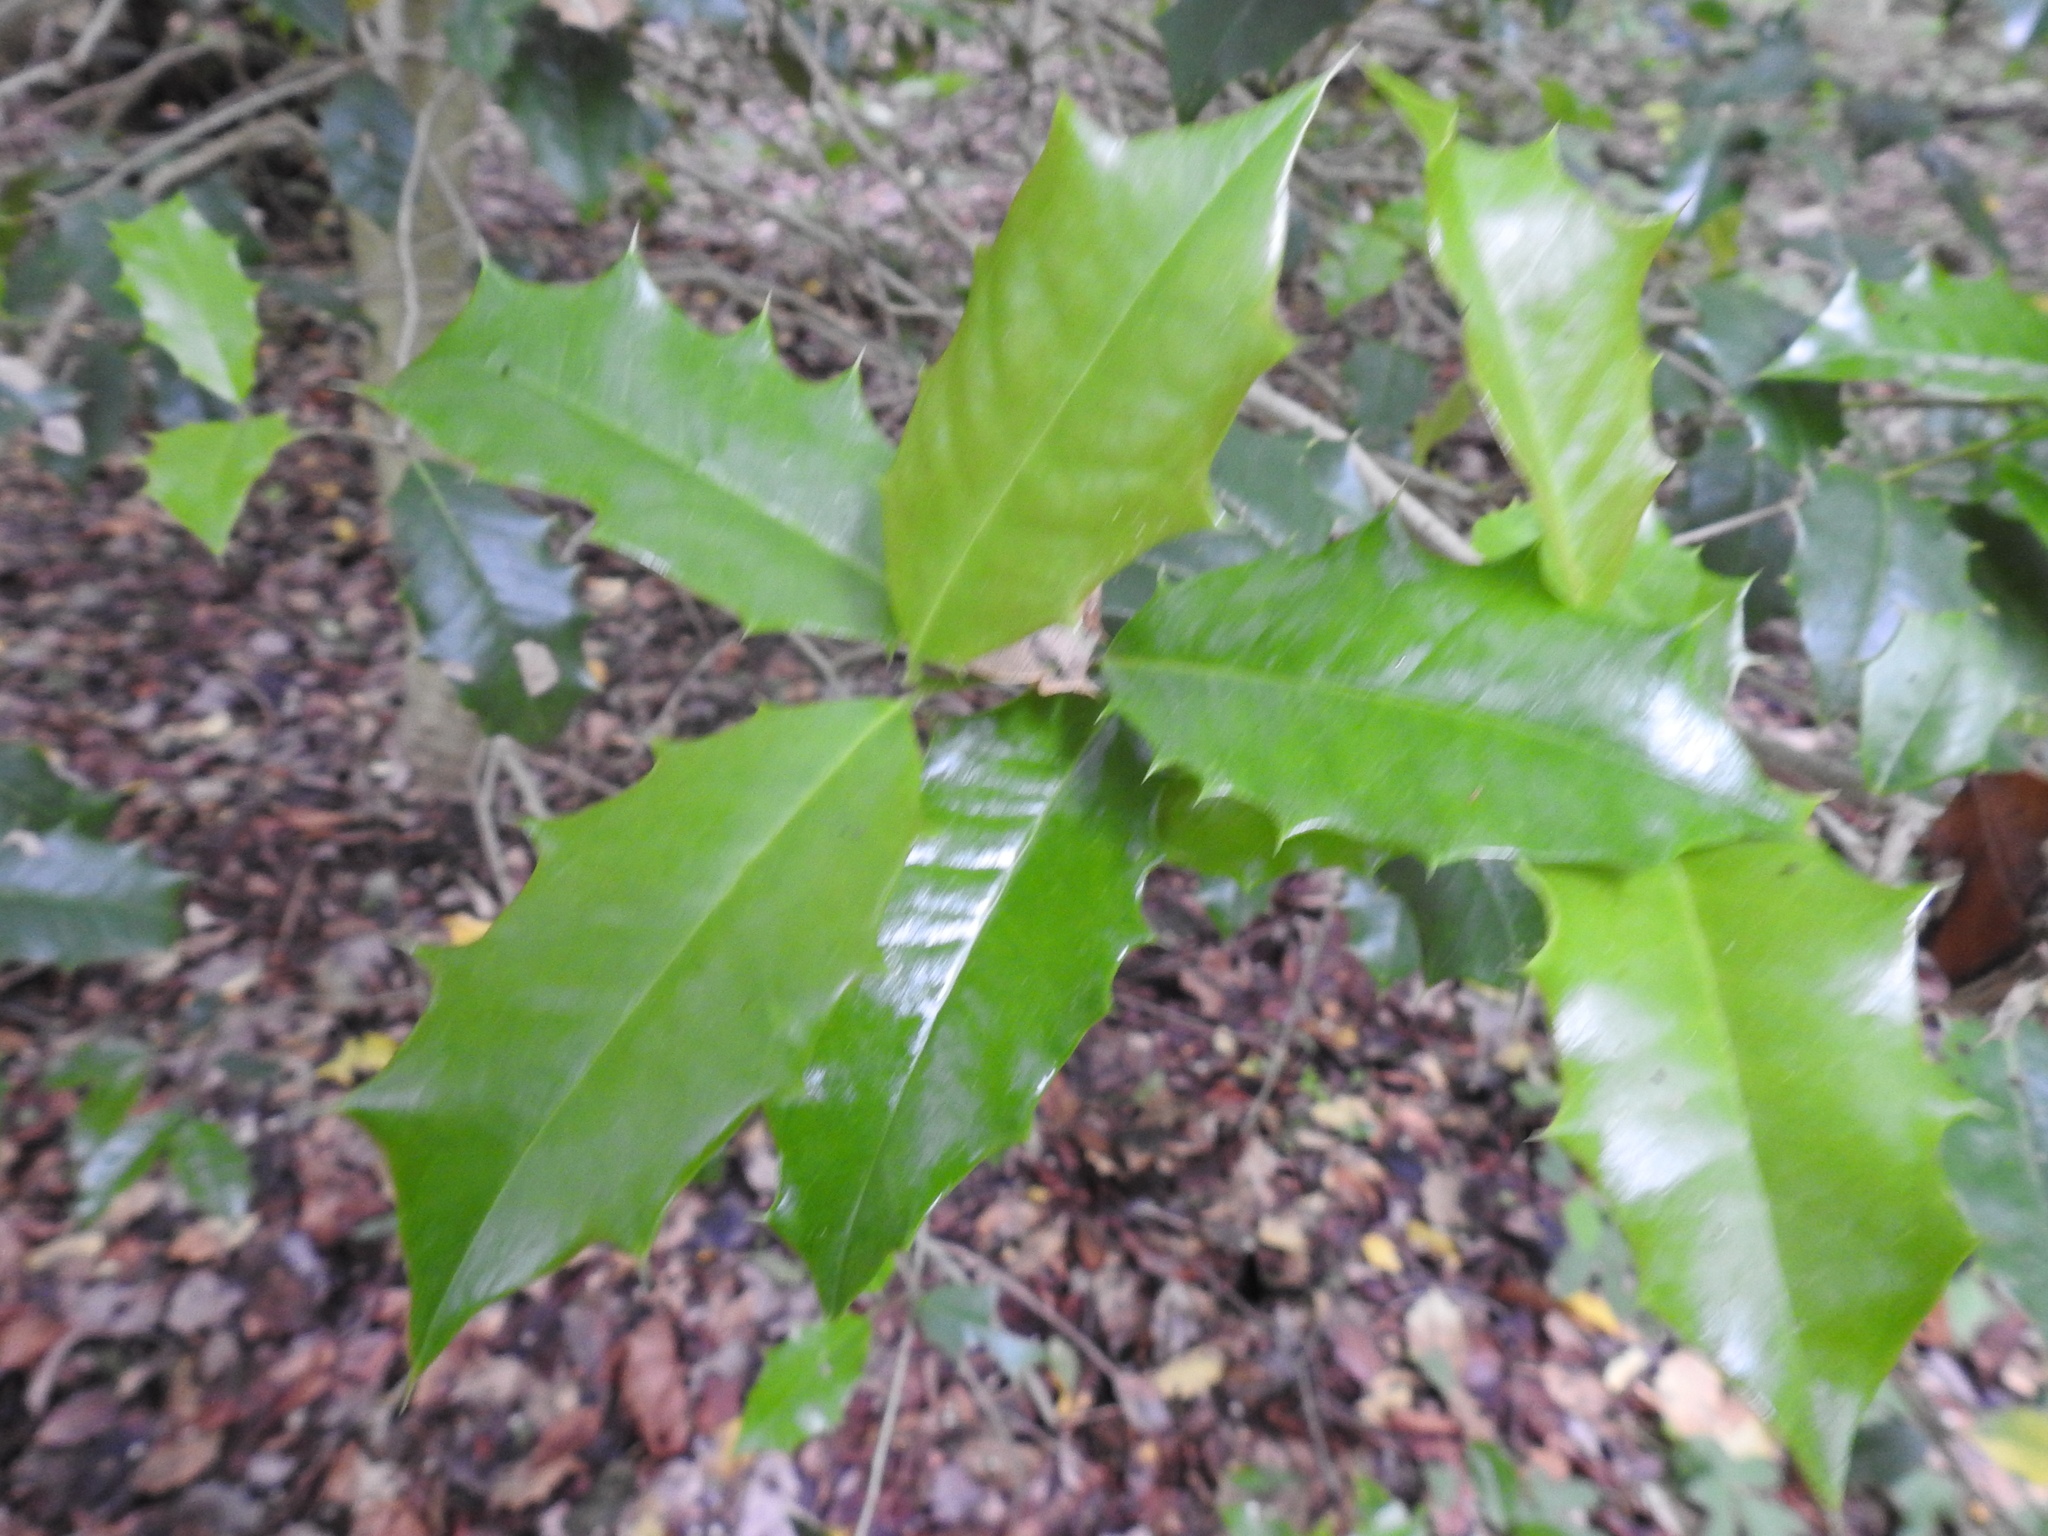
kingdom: Plantae
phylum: Tracheophyta
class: Magnoliopsida
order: Aquifoliales
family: Aquifoliaceae
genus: Ilex
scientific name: Ilex opaca
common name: American holly
